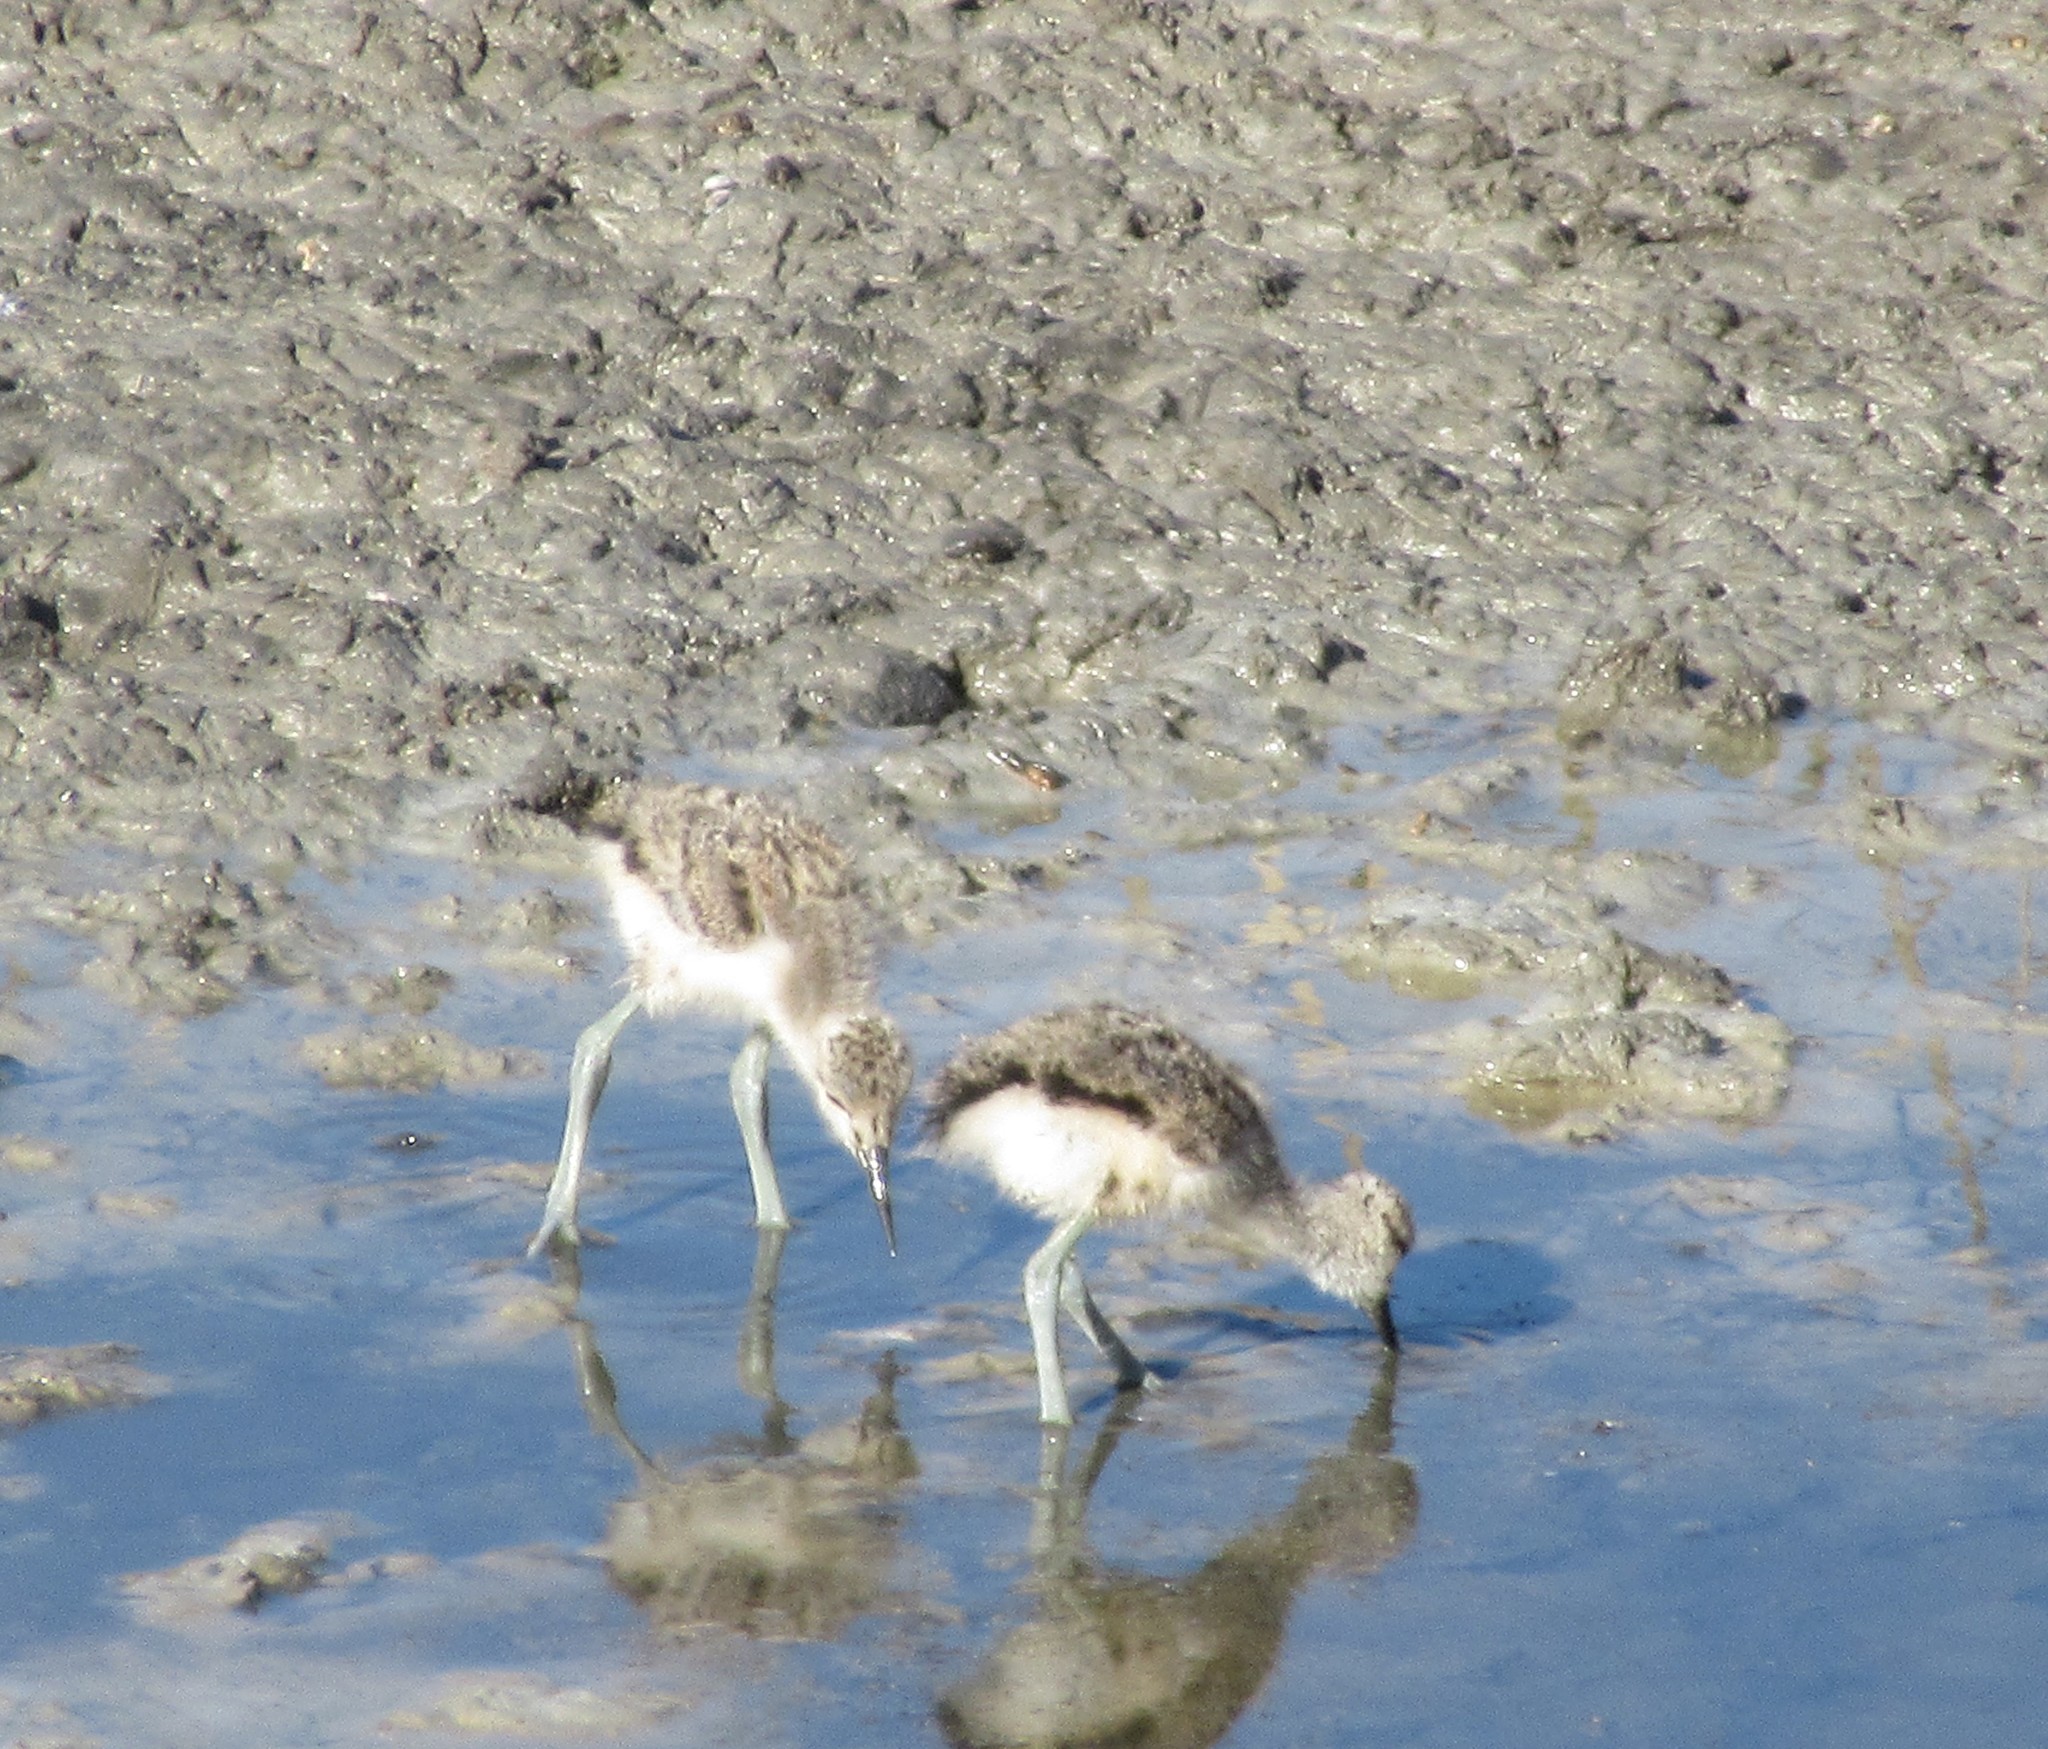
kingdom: Animalia
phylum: Chordata
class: Aves
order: Charadriiformes
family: Recurvirostridae
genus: Recurvirostra
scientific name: Recurvirostra americana
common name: American avocet
